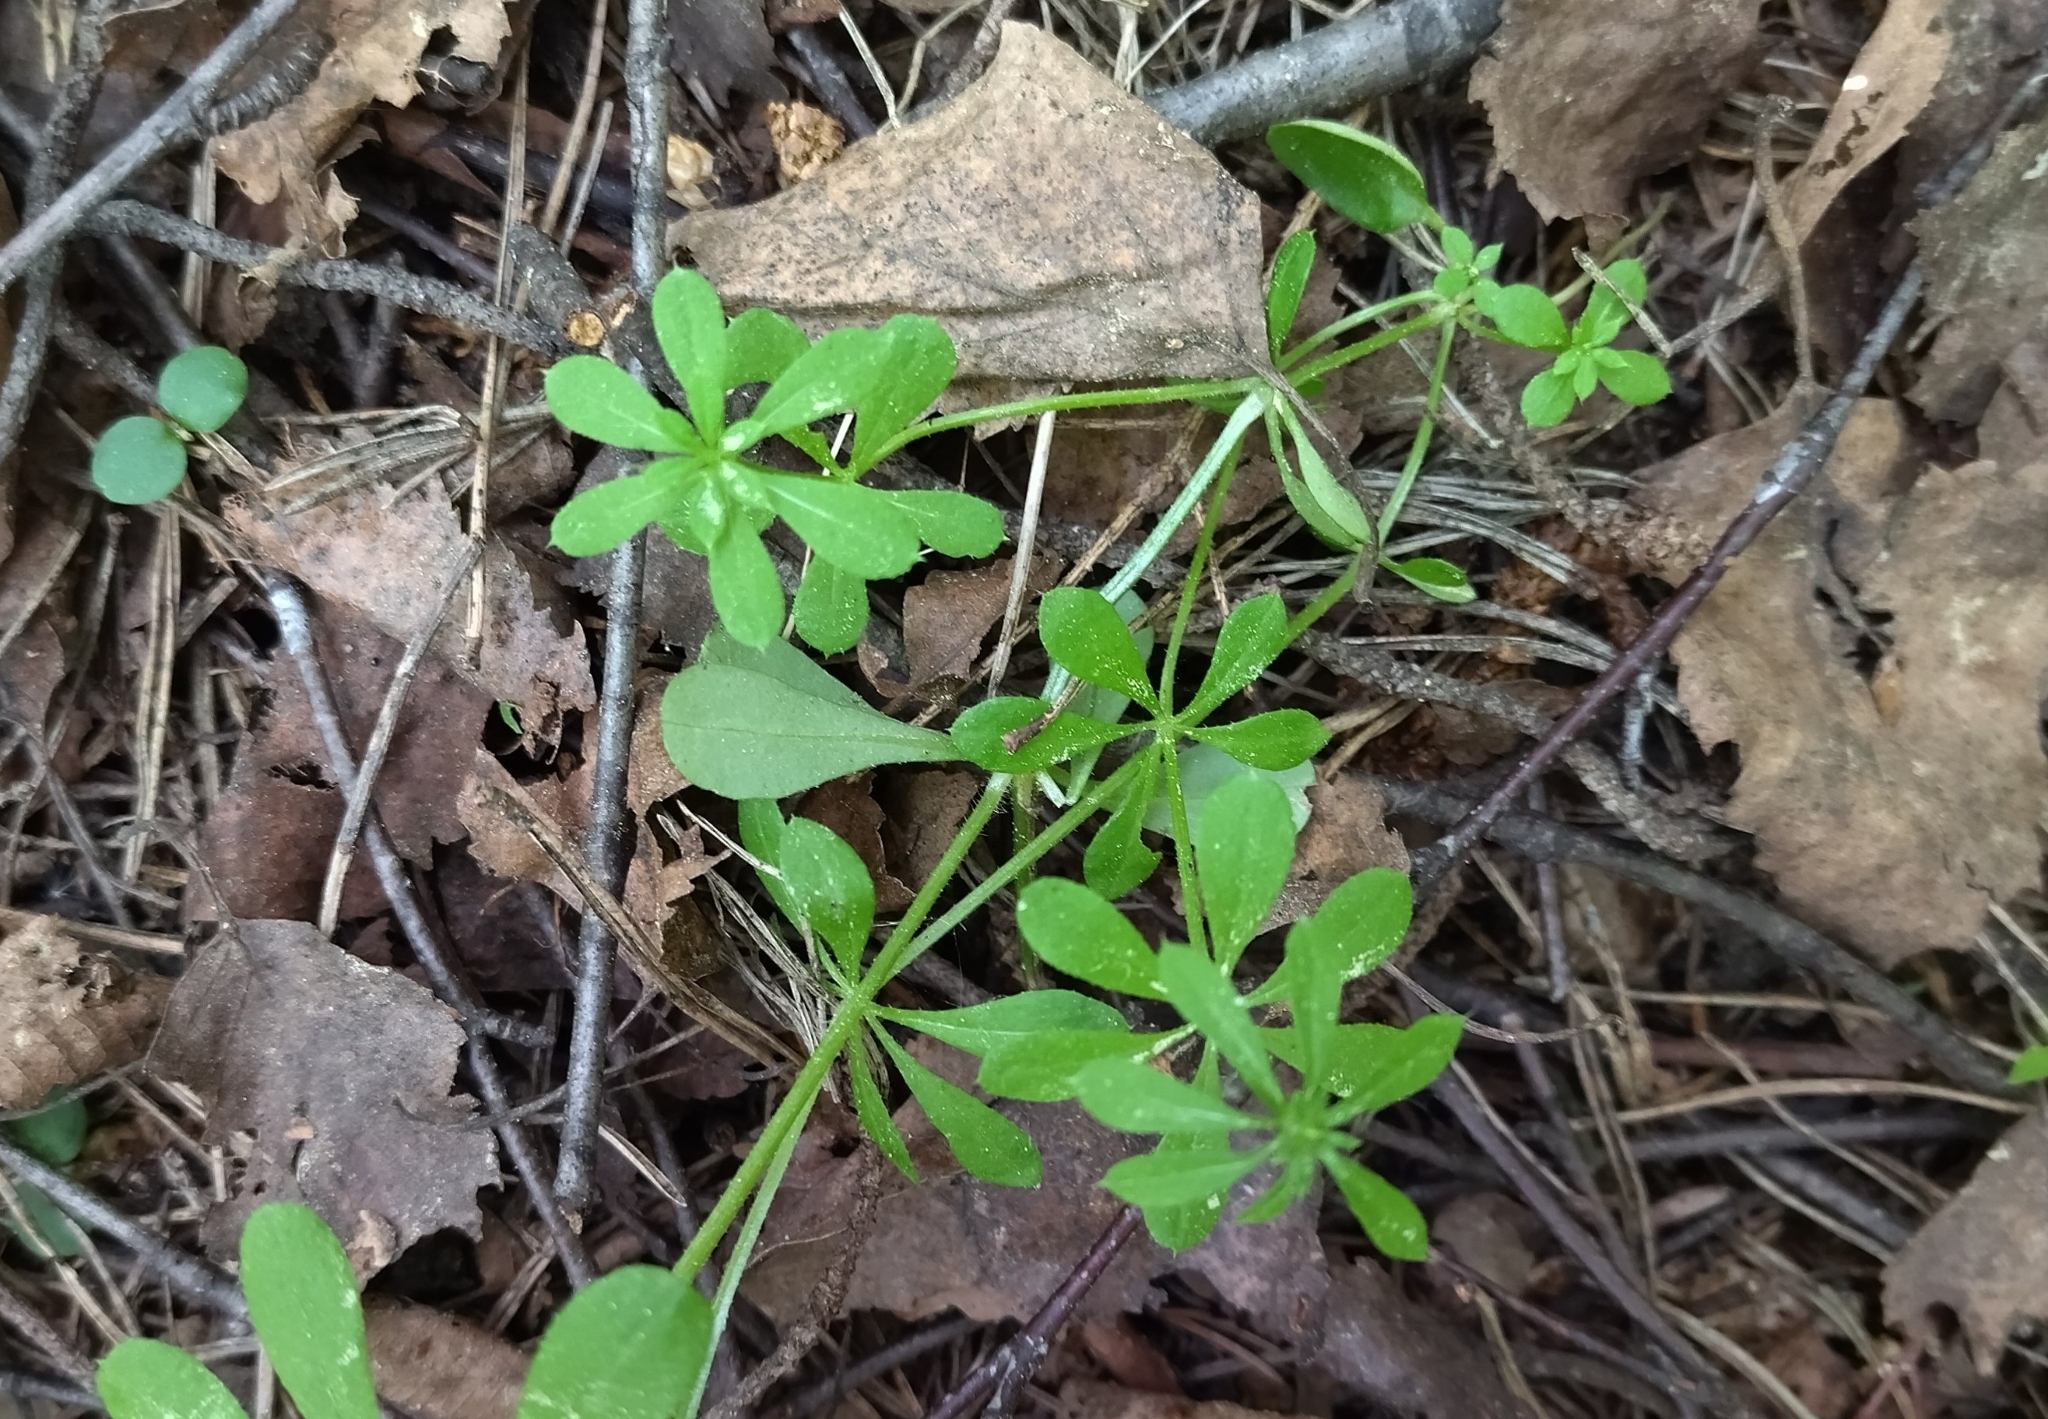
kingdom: Plantae
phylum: Tracheophyta
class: Magnoliopsida
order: Gentianales
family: Rubiaceae
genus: Galium
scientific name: Galium aparine
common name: Cleavers
